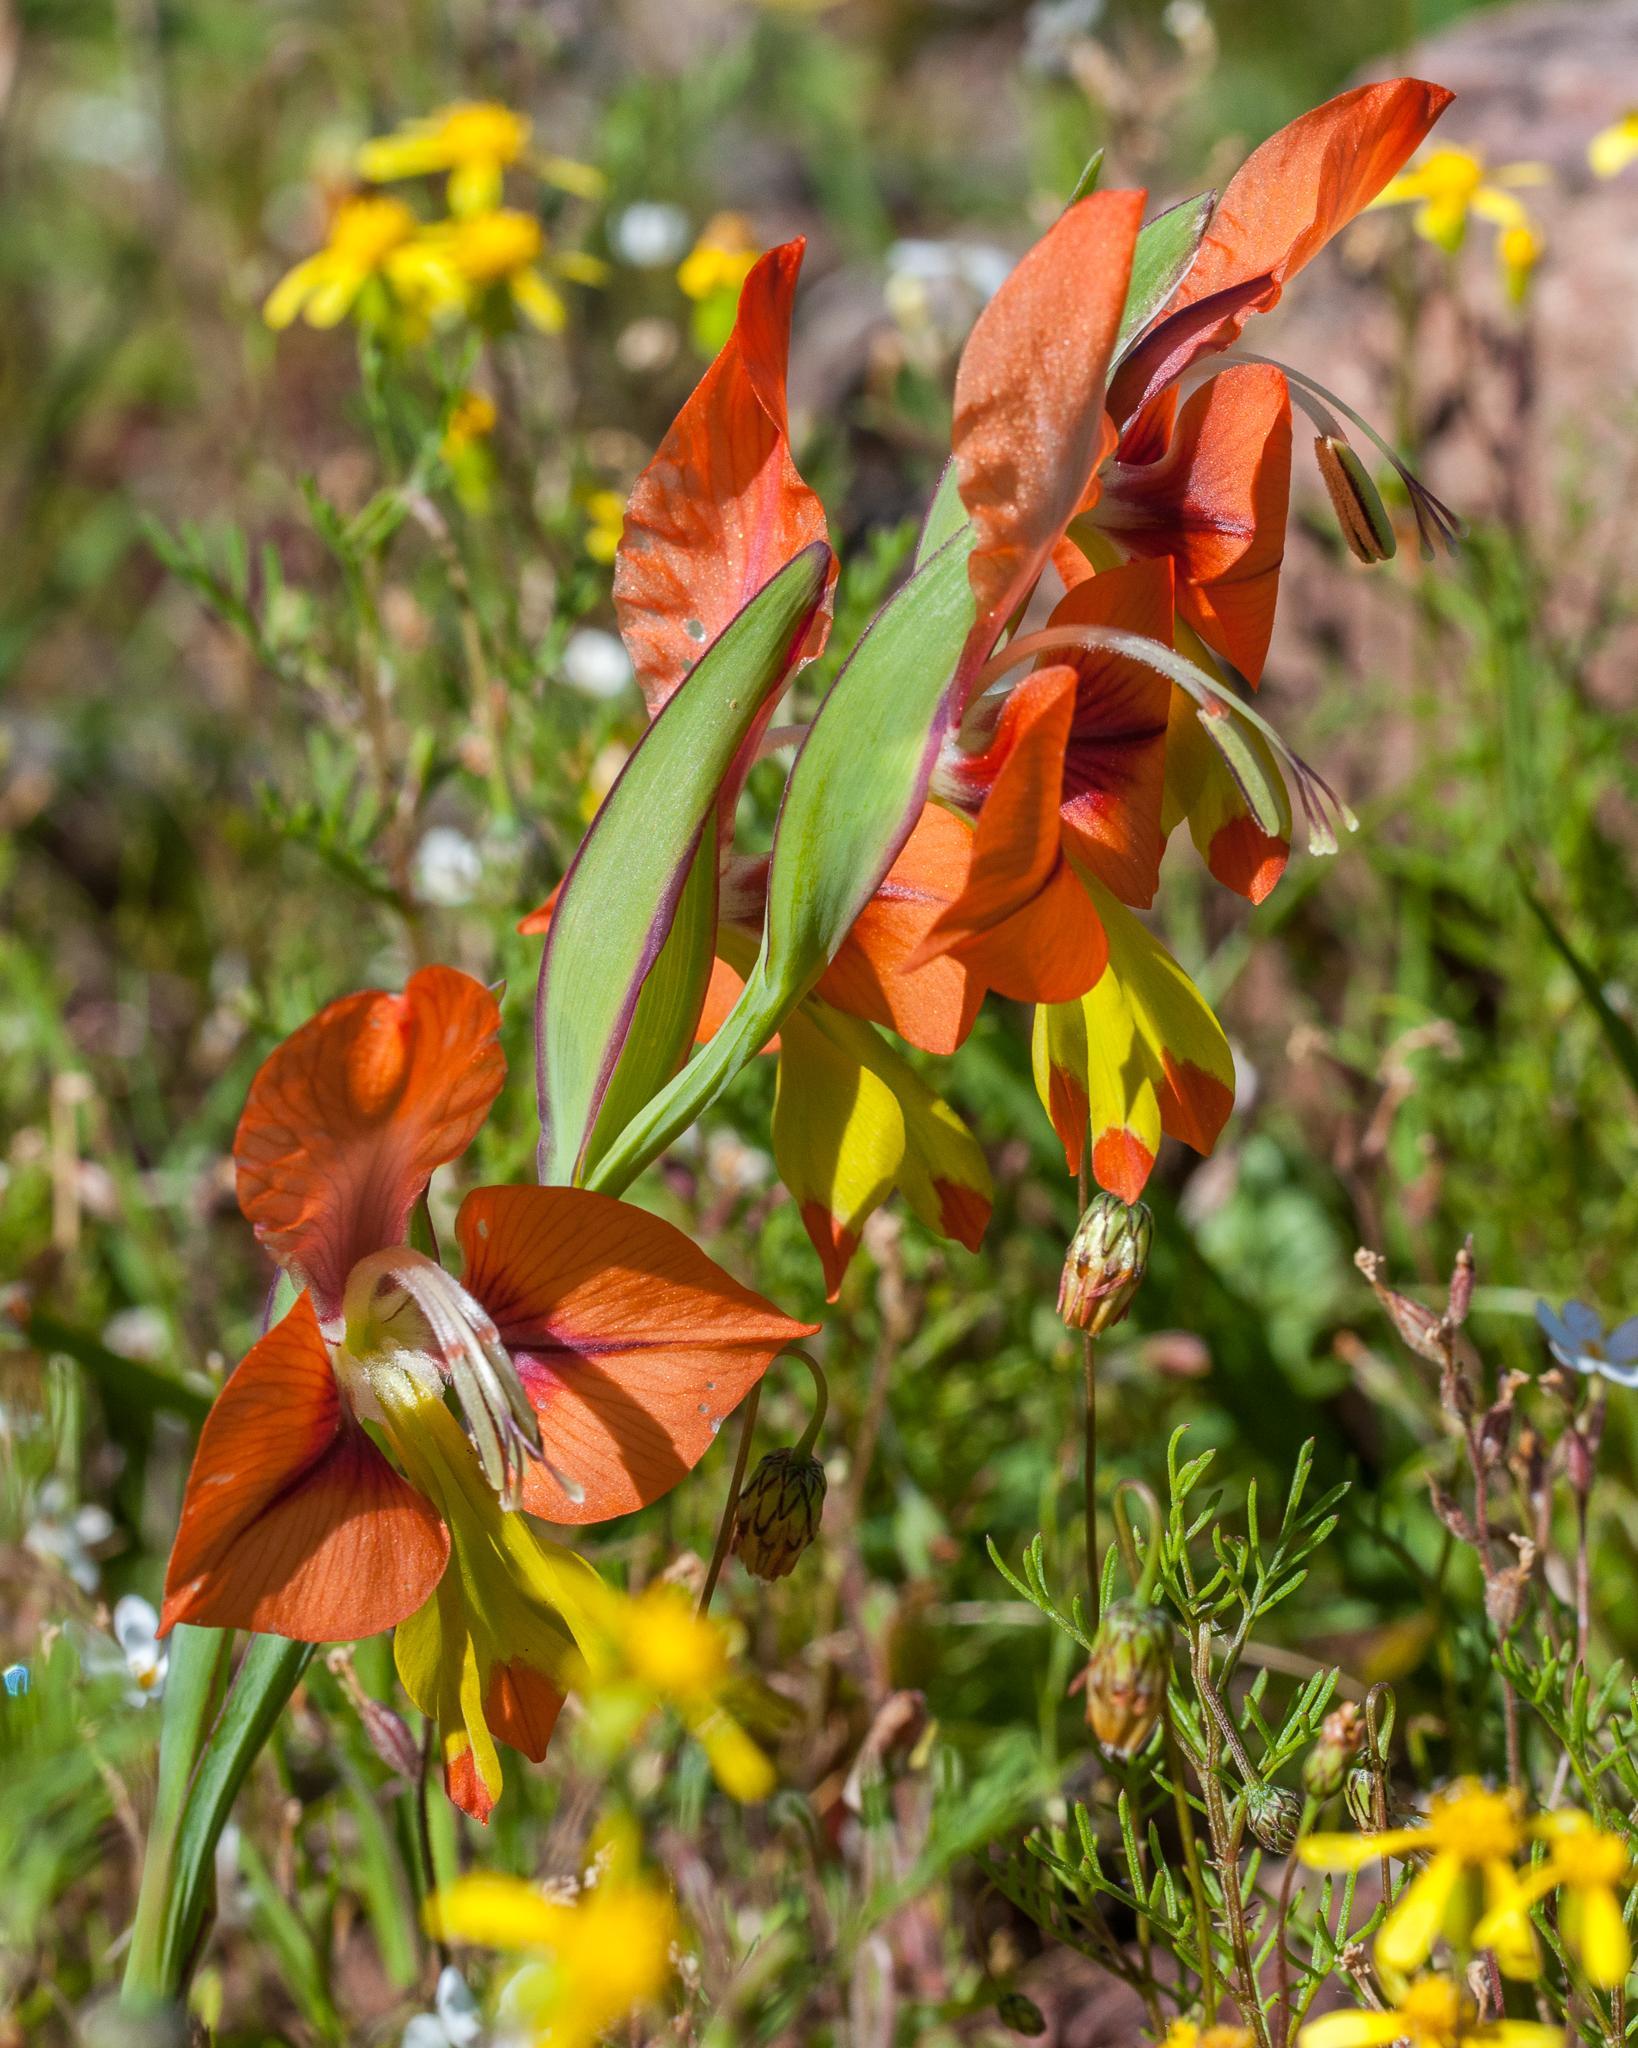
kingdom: Plantae
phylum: Tracheophyta
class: Liliopsida
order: Asparagales
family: Iridaceae
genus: Gladiolus
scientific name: Gladiolus alatus
